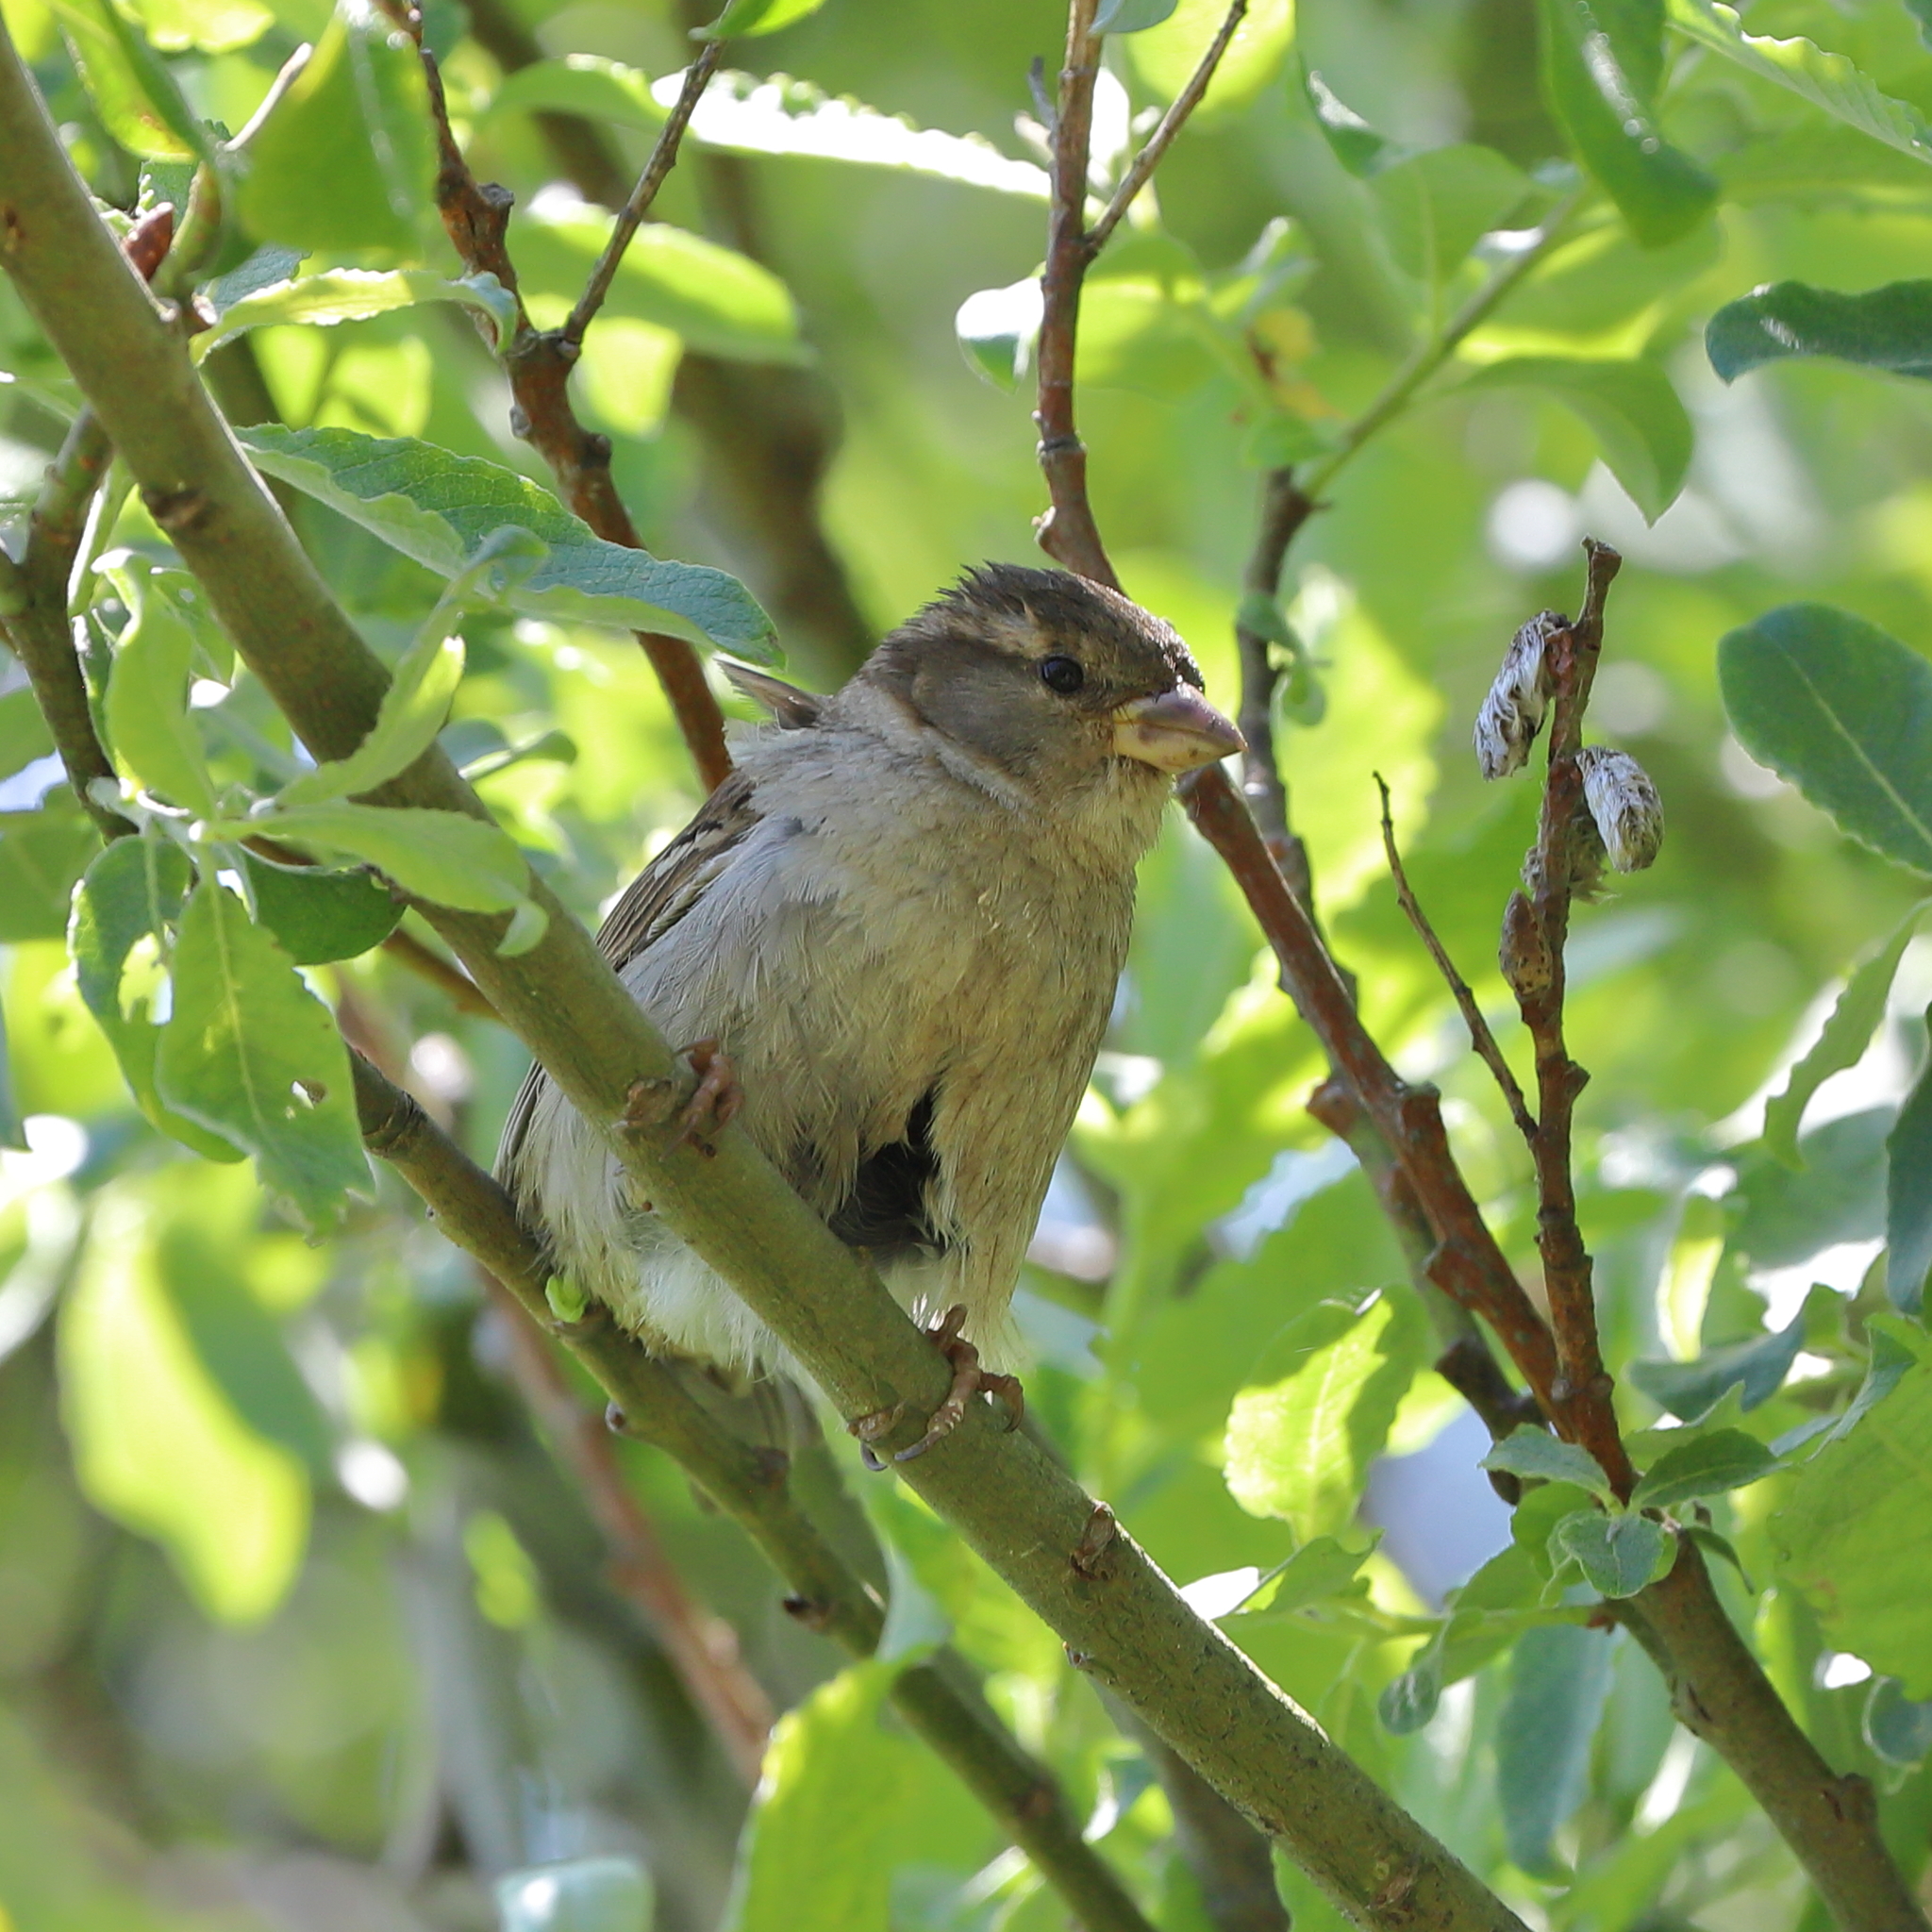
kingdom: Animalia
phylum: Chordata
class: Aves
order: Passeriformes
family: Passeridae
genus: Passer
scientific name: Passer domesticus
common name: House sparrow
